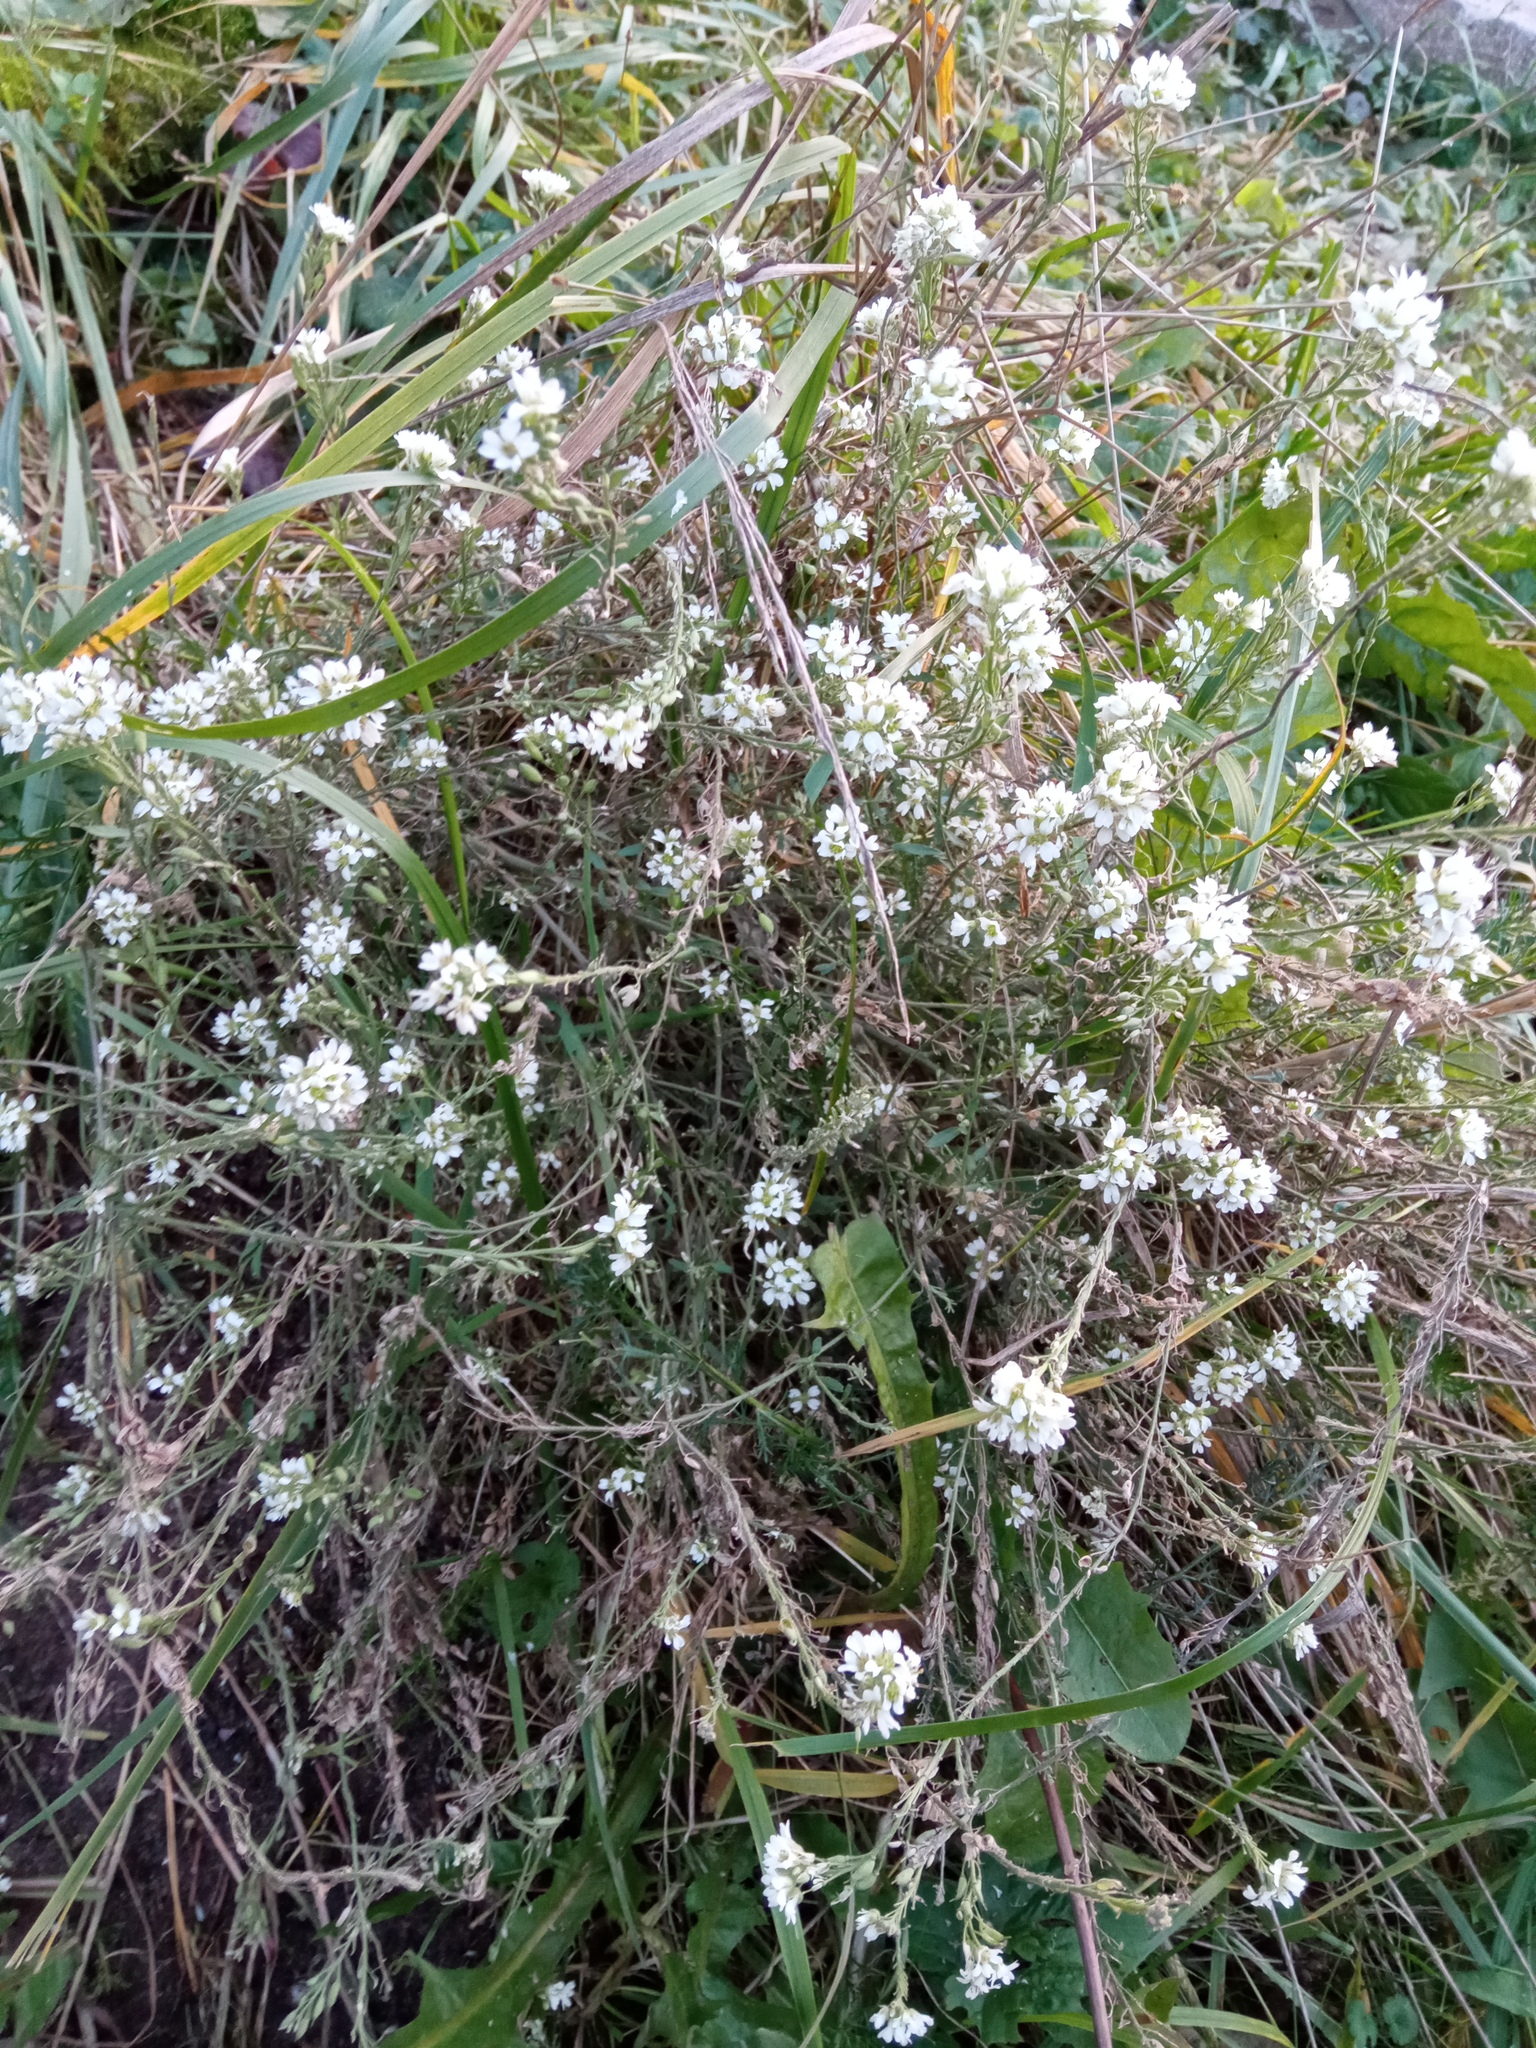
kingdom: Plantae
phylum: Tracheophyta
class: Magnoliopsida
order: Brassicales
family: Brassicaceae
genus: Berteroa
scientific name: Berteroa incana
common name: Hoary alison
